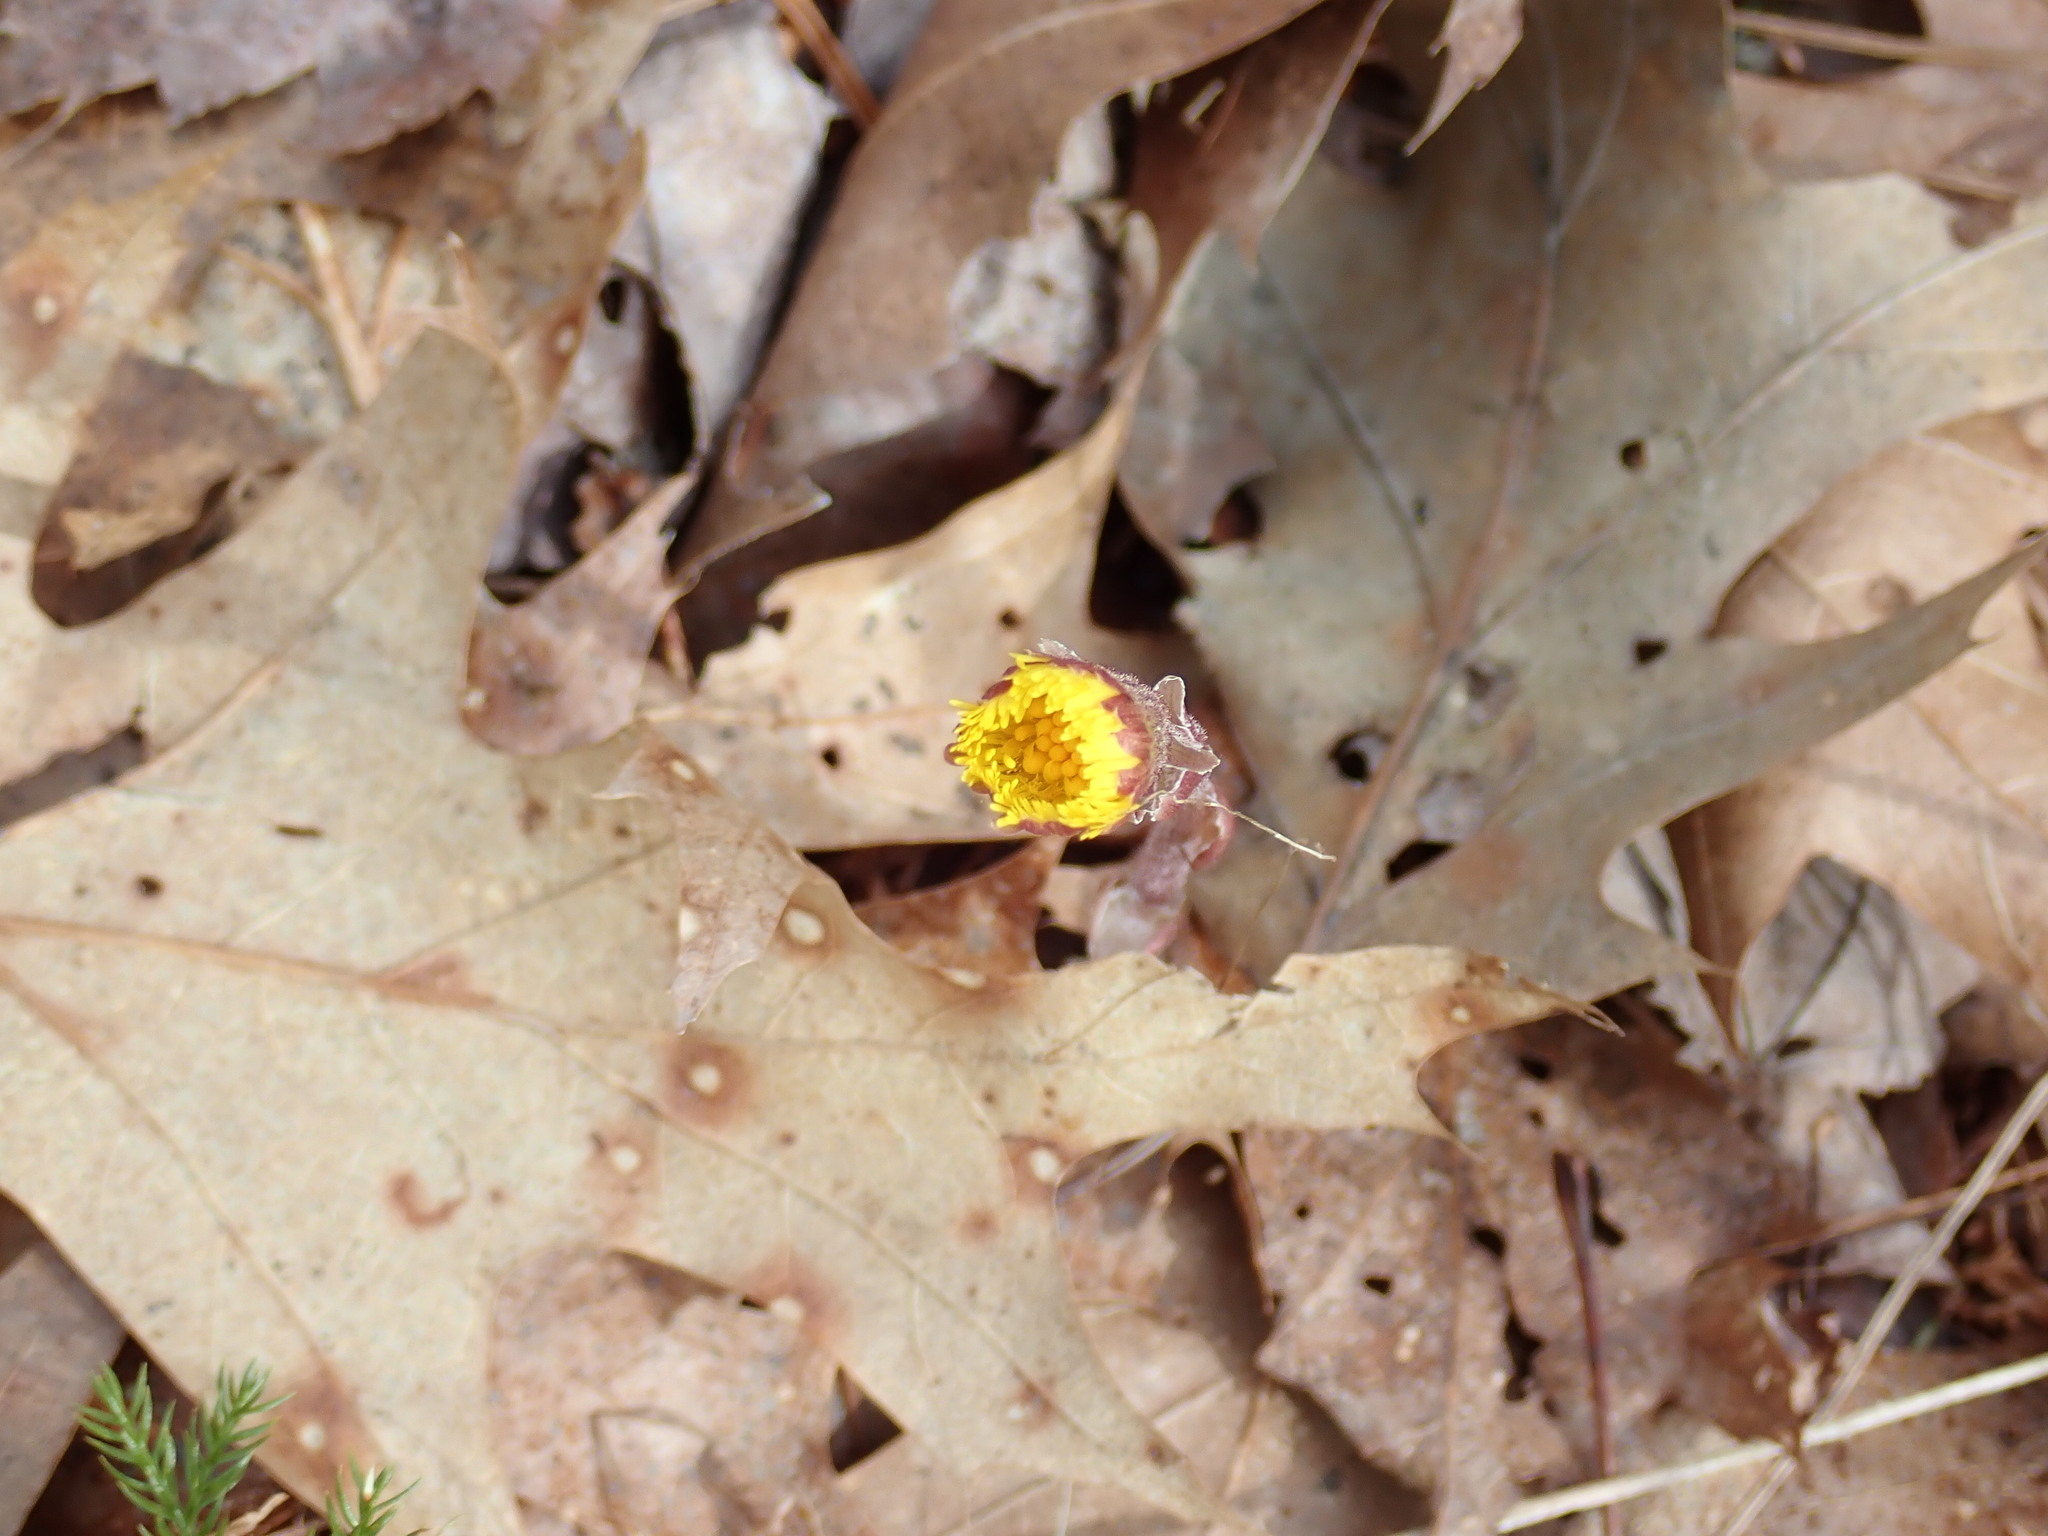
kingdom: Plantae
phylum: Tracheophyta
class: Magnoliopsida
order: Asterales
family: Asteraceae
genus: Tussilago
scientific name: Tussilago farfara
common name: Coltsfoot
